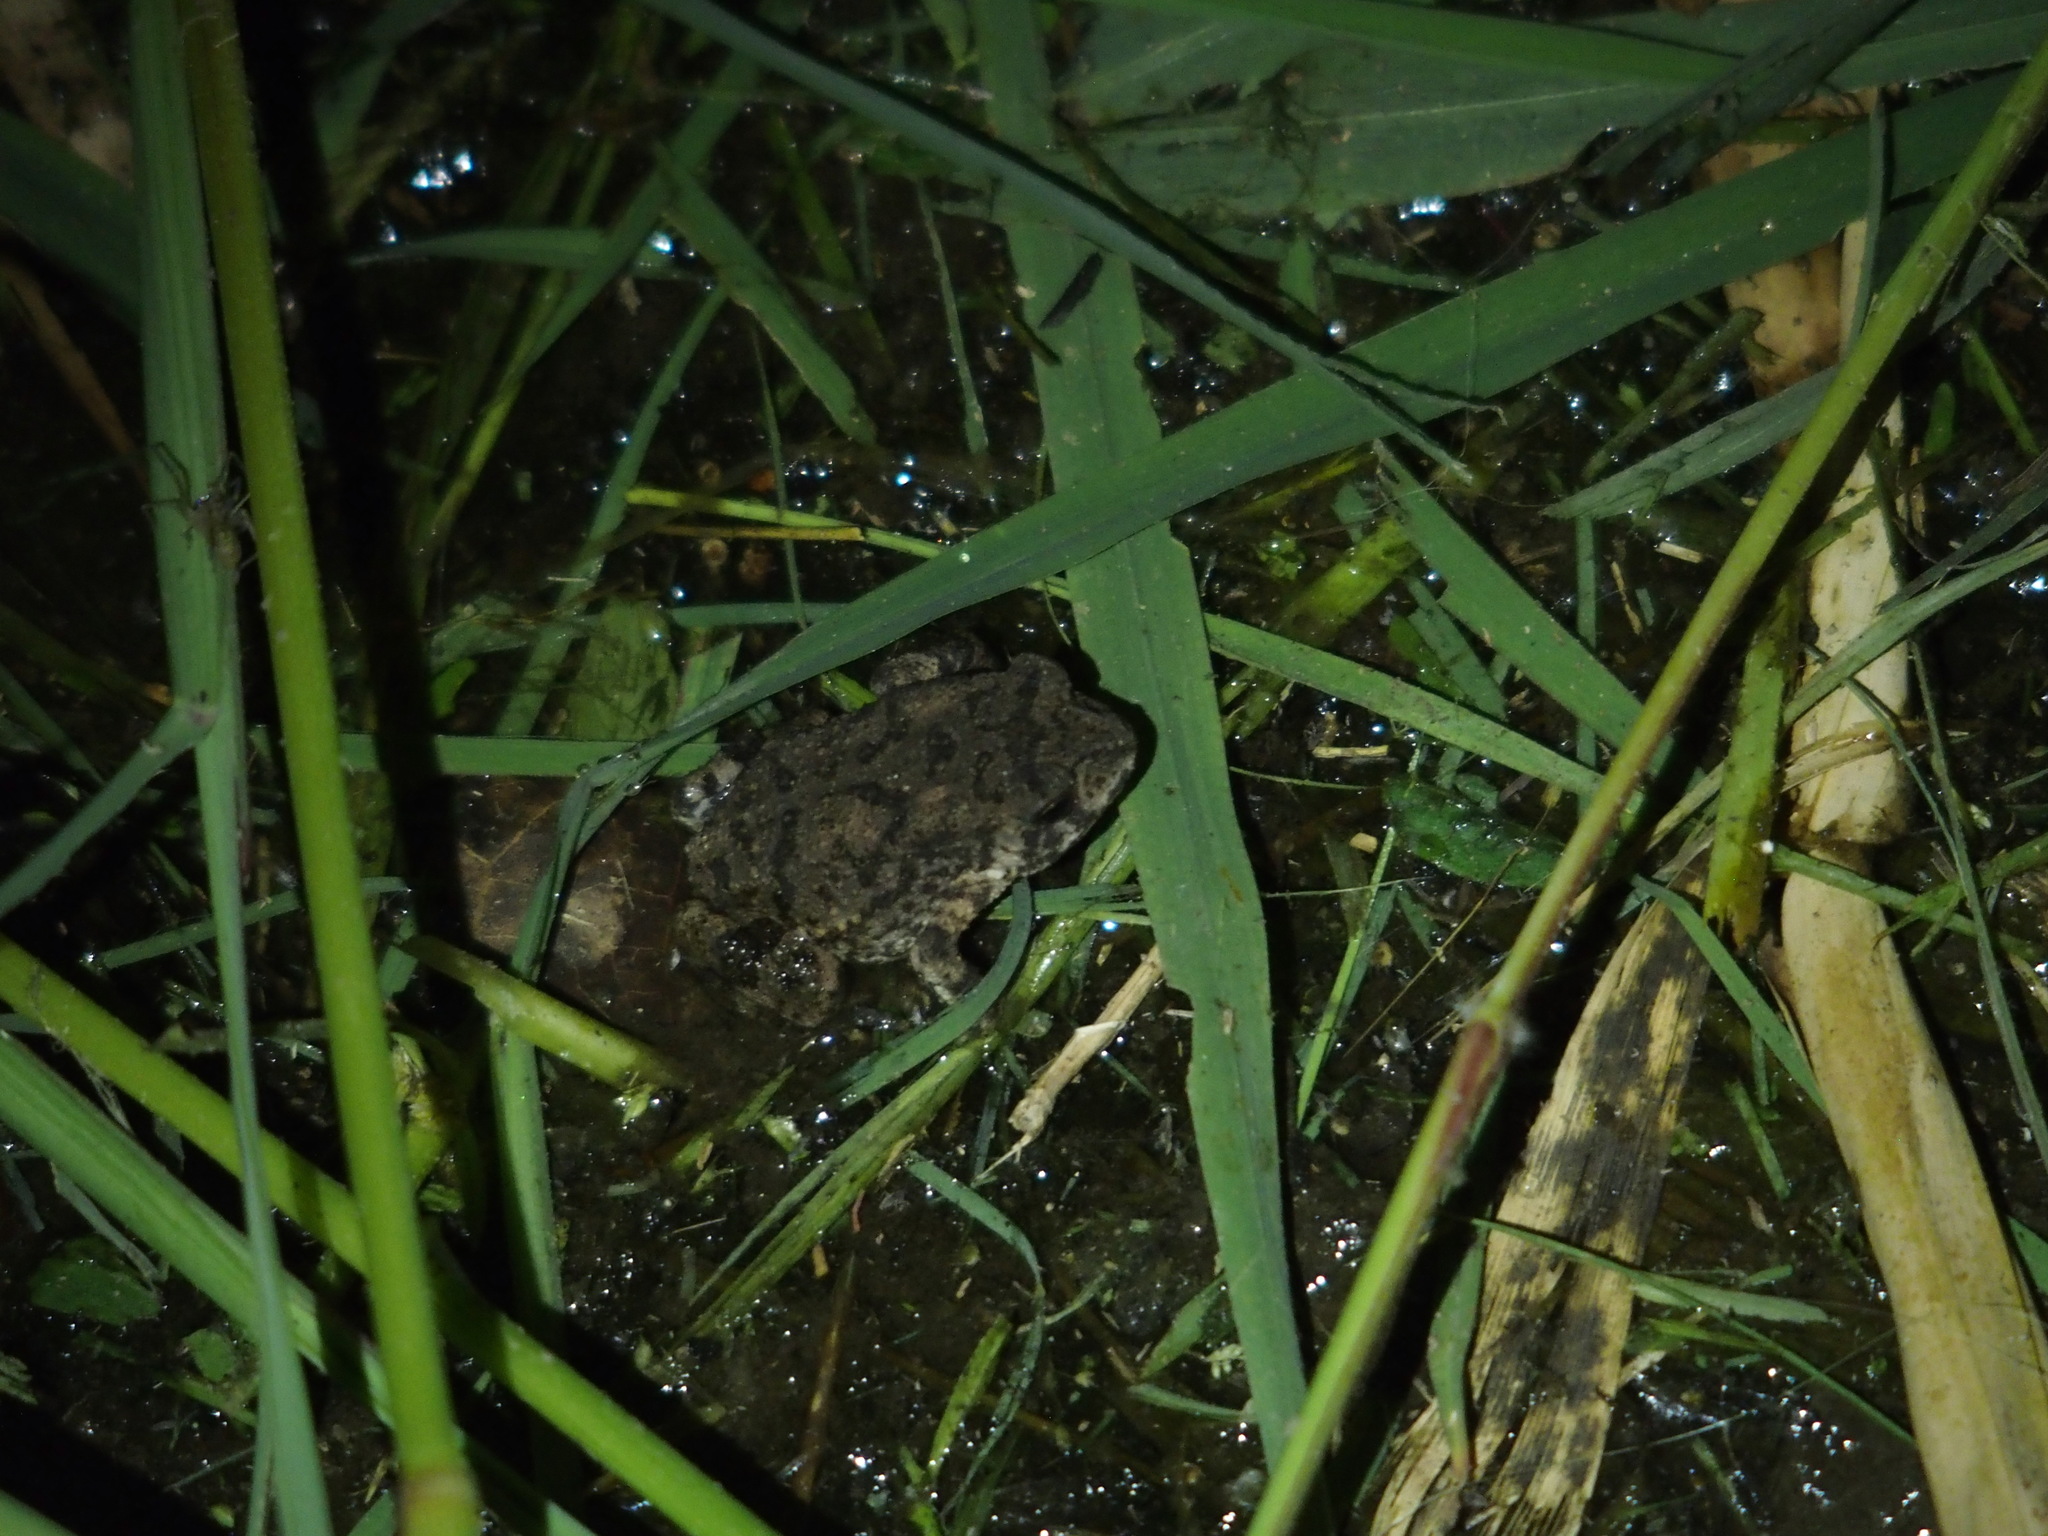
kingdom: Animalia
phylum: Chordata
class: Amphibia
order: Anura
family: Bufonidae
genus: Duttaphrynus
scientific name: Duttaphrynus melanostictus
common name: Common sunda toad
